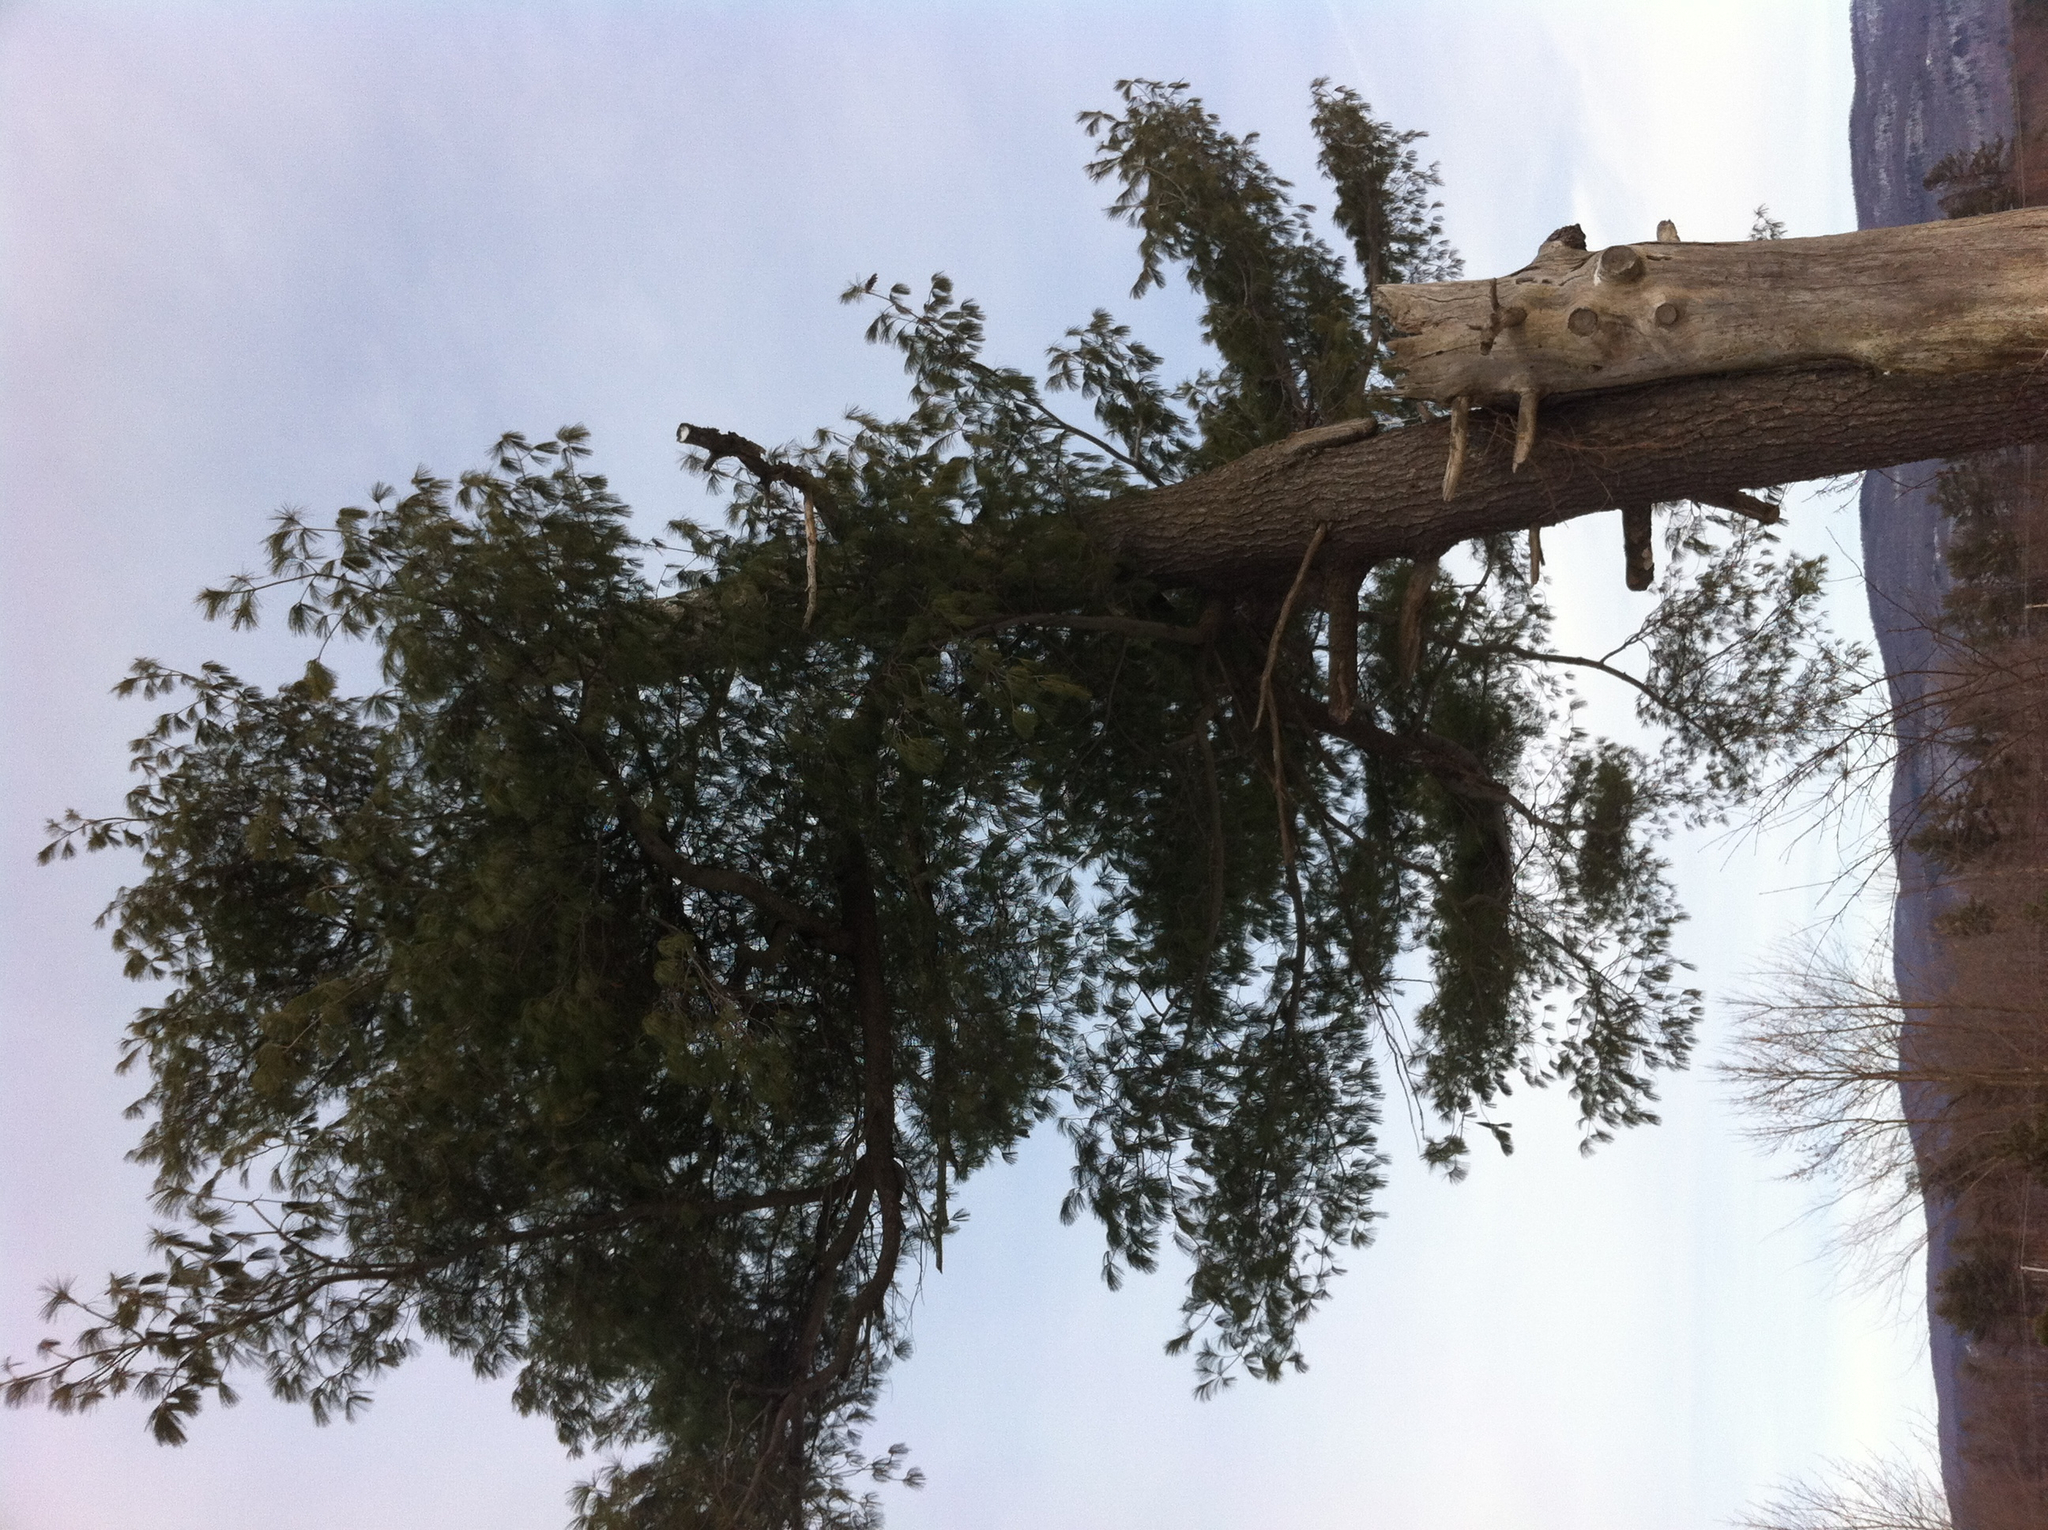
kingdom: Plantae
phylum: Tracheophyta
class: Pinopsida
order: Pinales
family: Pinaceae
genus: Pinus
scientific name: Pinus strobus
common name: Weymouth pine
